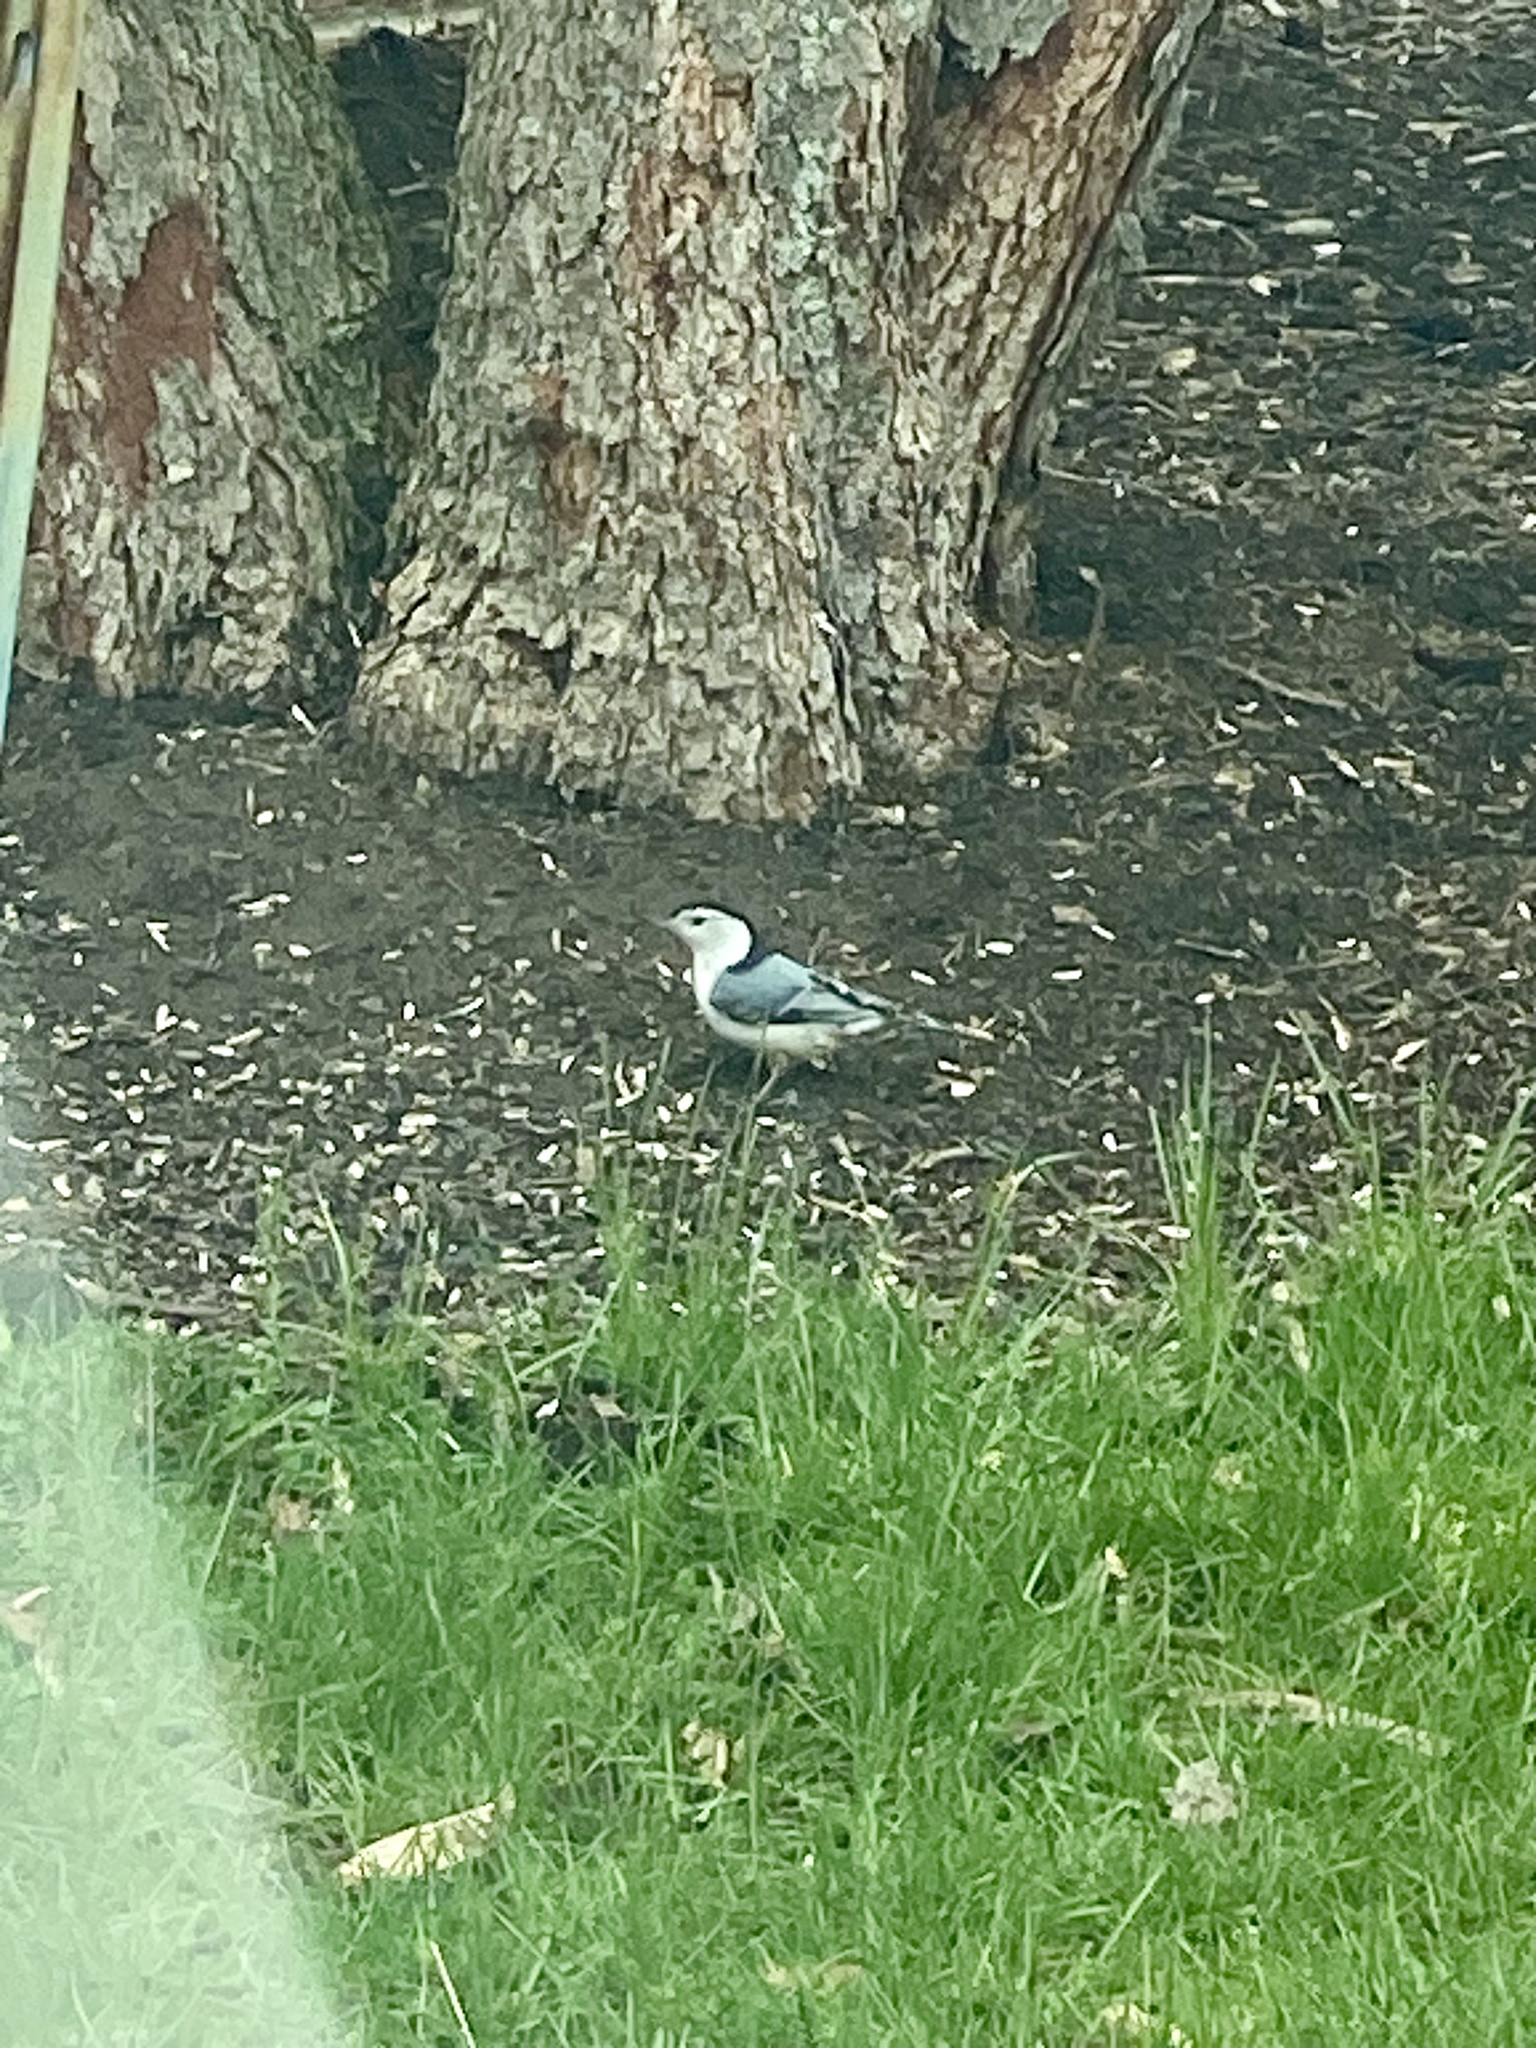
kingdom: Animalia
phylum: Chordata
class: Aves
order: Passeriformes
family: Sittidae
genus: Sitta
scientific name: Sitta carolinensis
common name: White-breasted nuthatch
